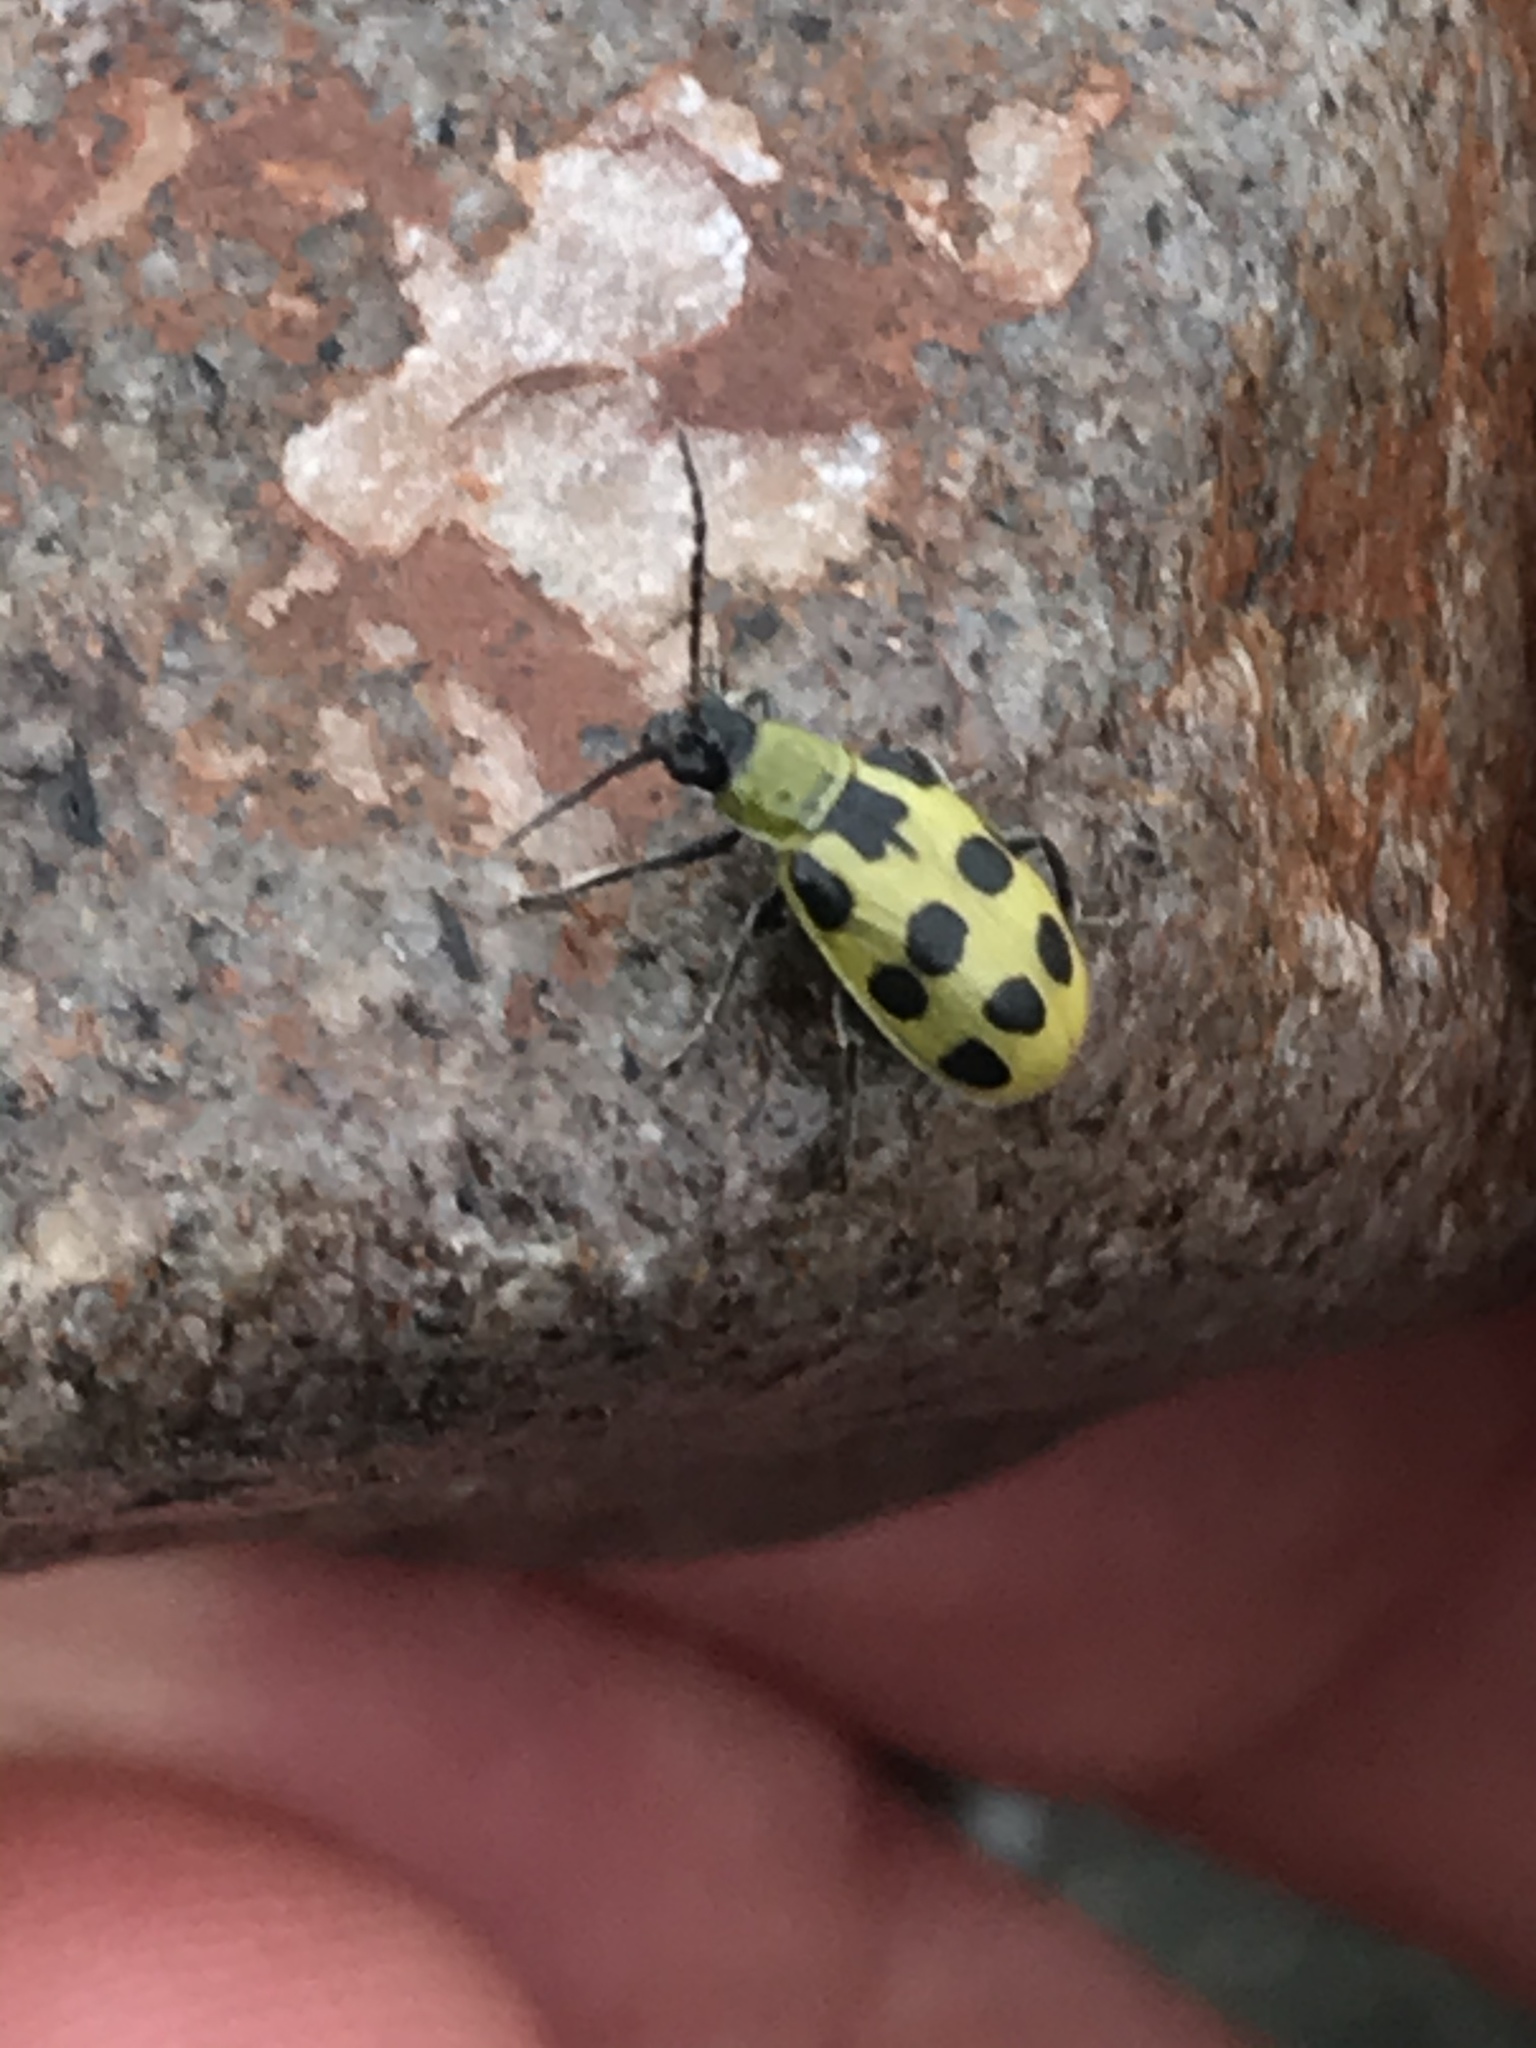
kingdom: Animalia
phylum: Arthropoda
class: Insecta
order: Coleoptera
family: Chrysomelidae
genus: Diabrotica
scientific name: Diabrotica undecimpunctata
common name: Spotted cucumber beetle
